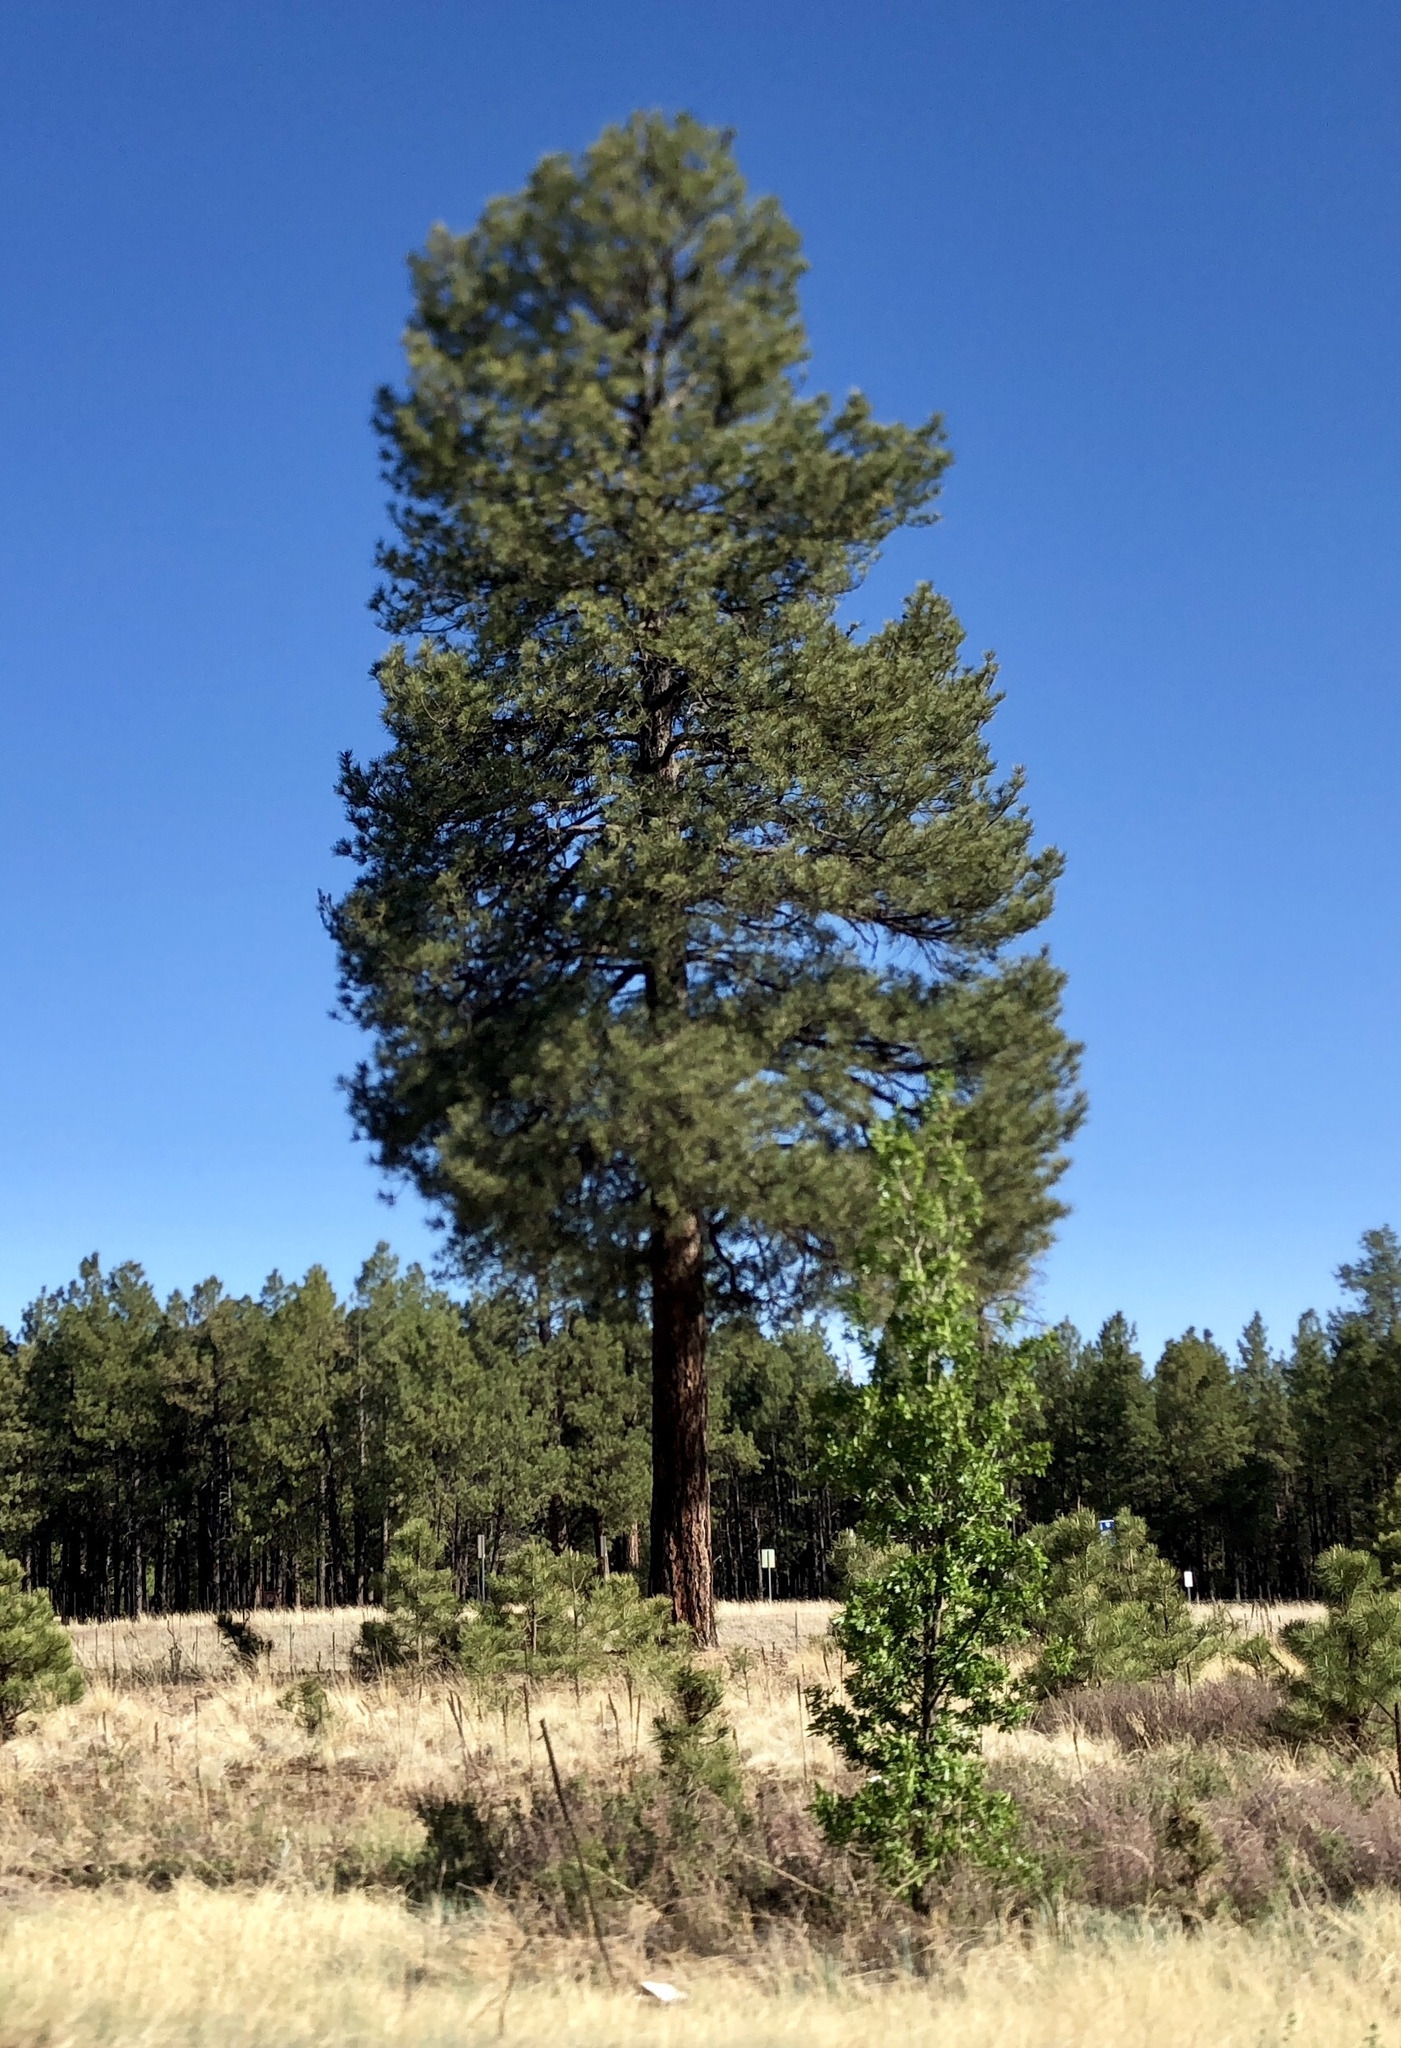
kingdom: Plantae
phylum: Tracheophyta
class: Pinopsida
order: Pinales
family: Pinaceae
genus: Pinus
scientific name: Pinus ponderosa
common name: Western yellow-pine
